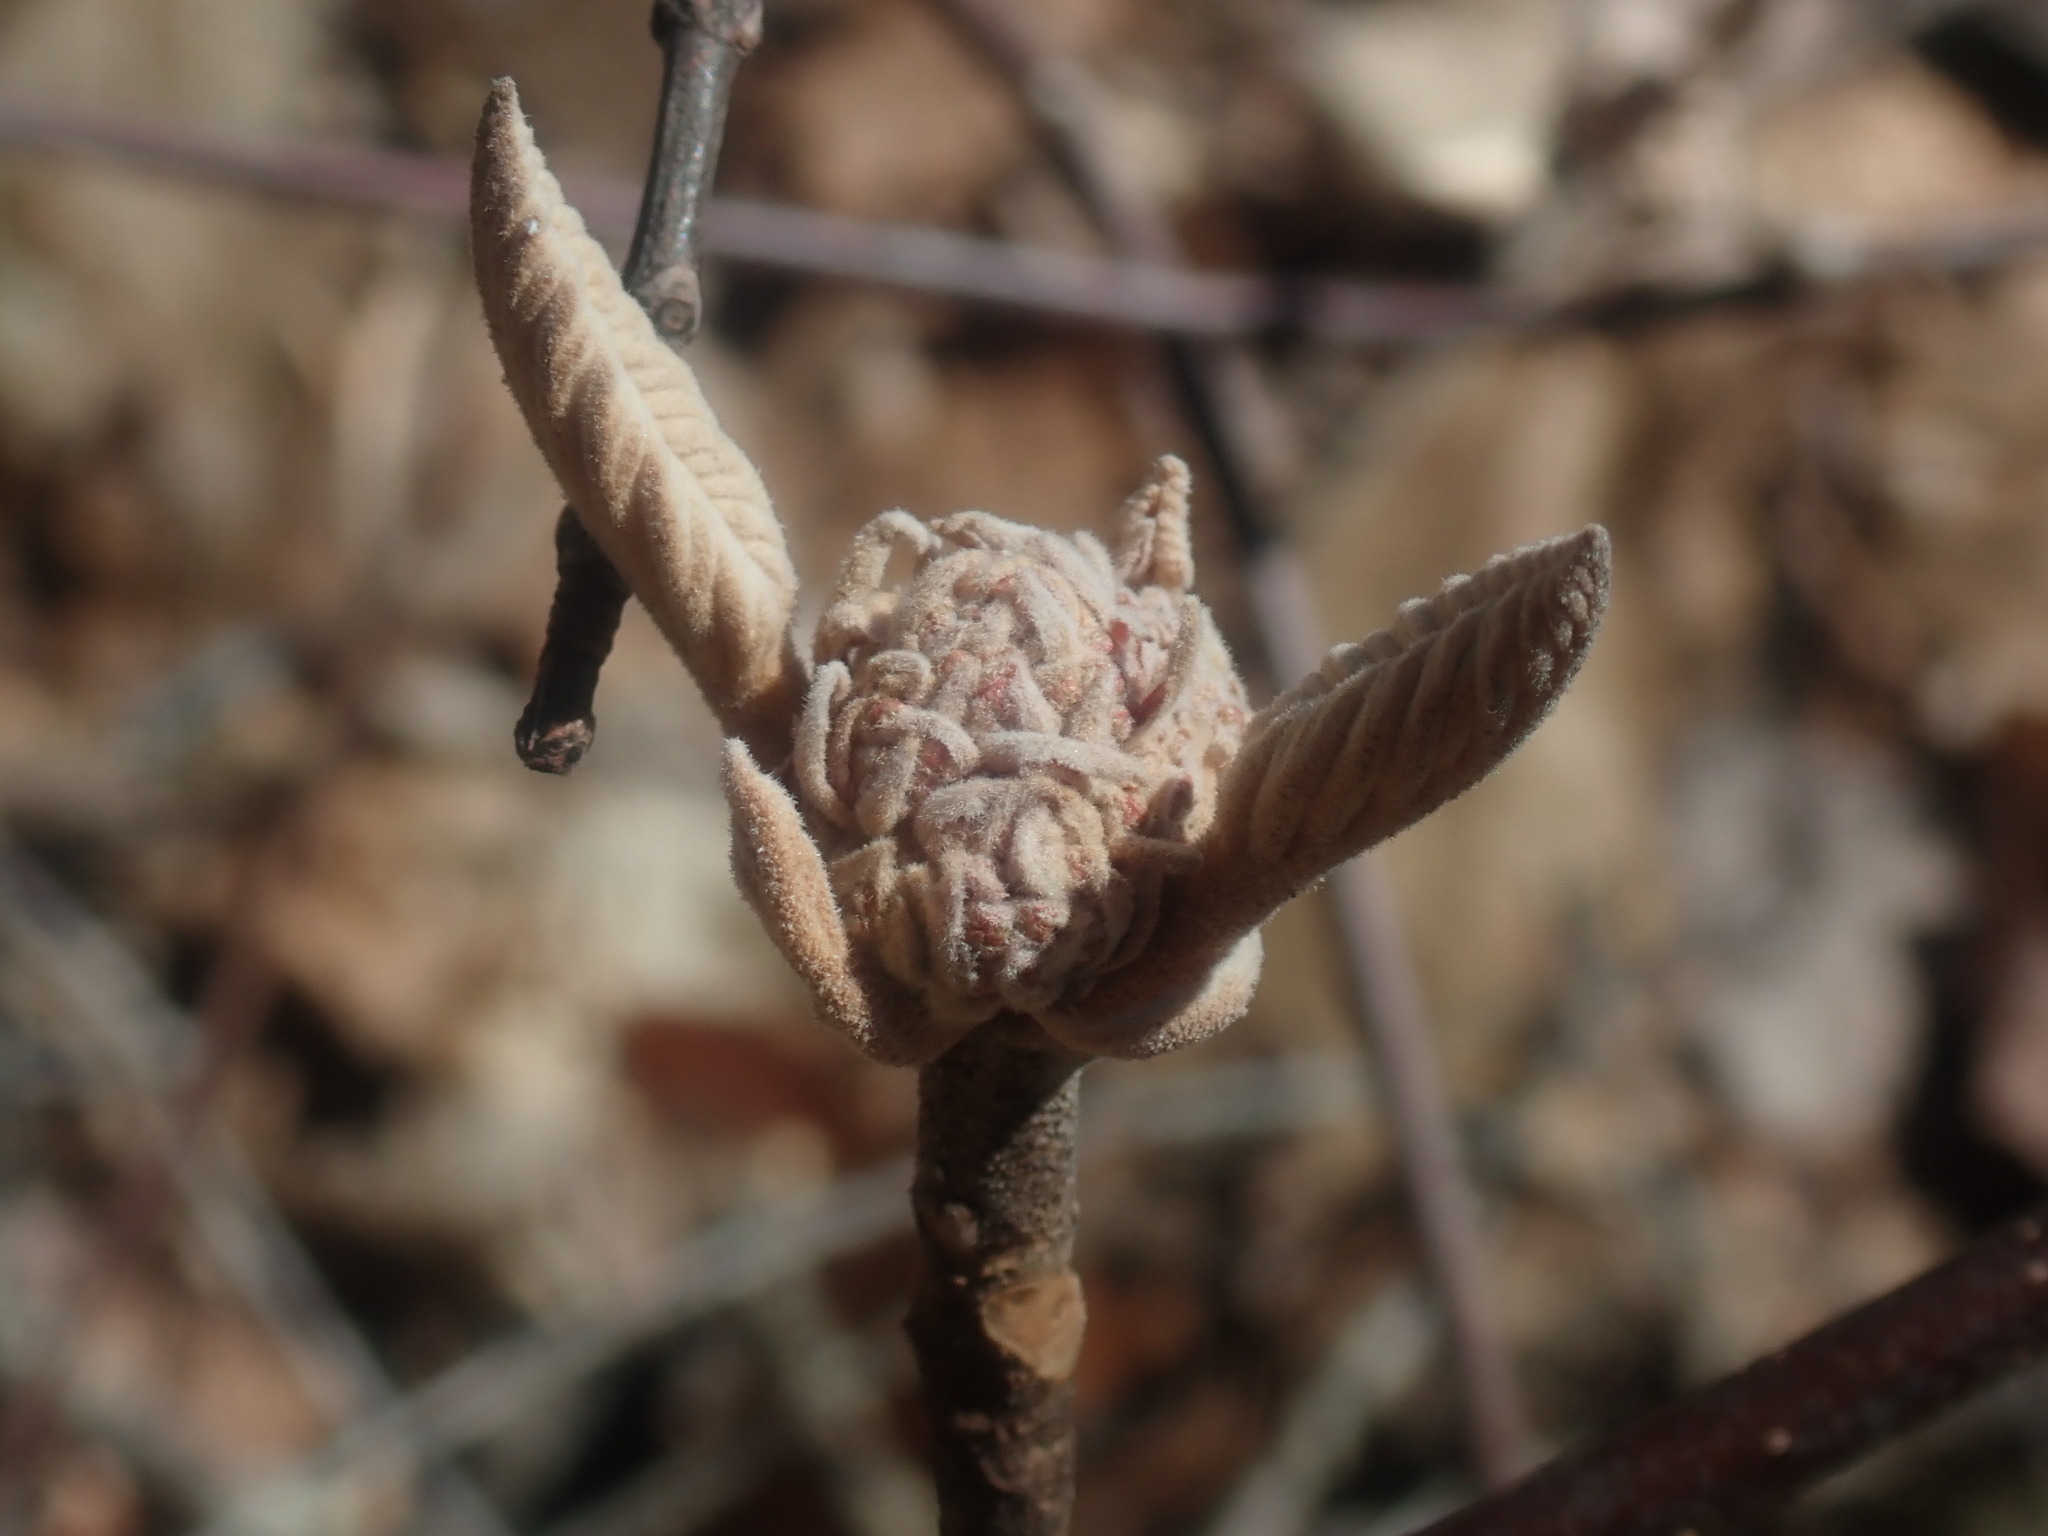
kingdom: Plantae
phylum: Tracheophyta
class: Magnoliopsida
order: Dipsacales
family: Viburnaceae
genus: Viburnum
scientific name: Viburnum lantanoides
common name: Hobblebush
